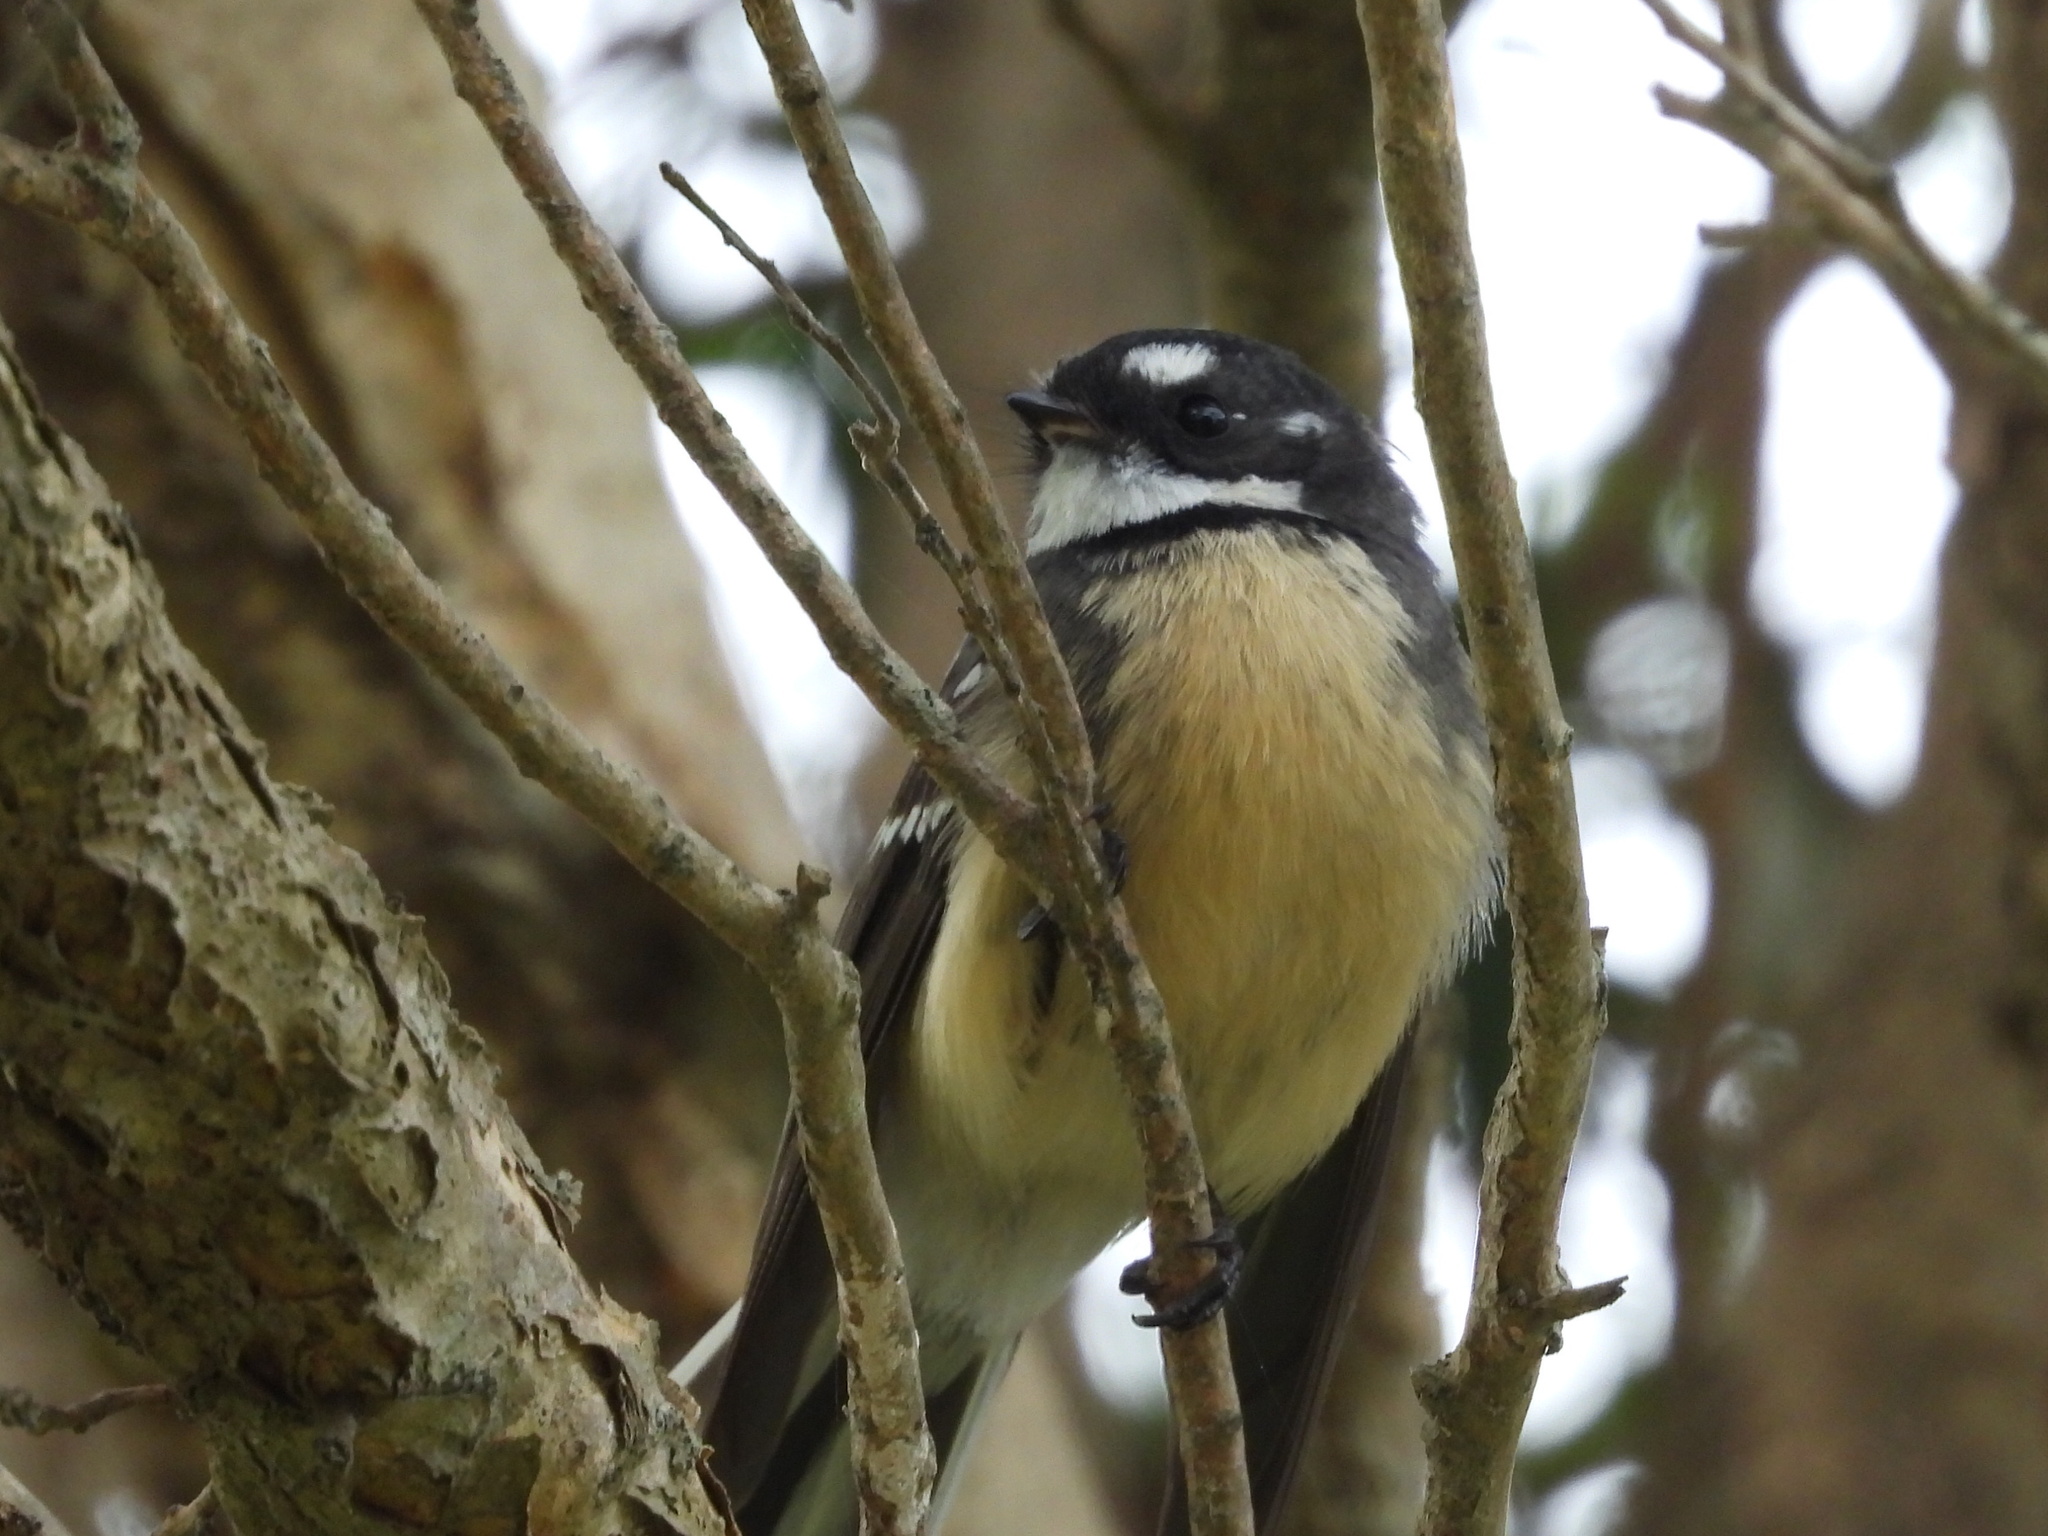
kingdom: Animalia
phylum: Chordata
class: Aves
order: Passeriformes
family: Rhipiduridae
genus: Rhipidura
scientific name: Rhipidura albiscapa
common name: Grey fantail
